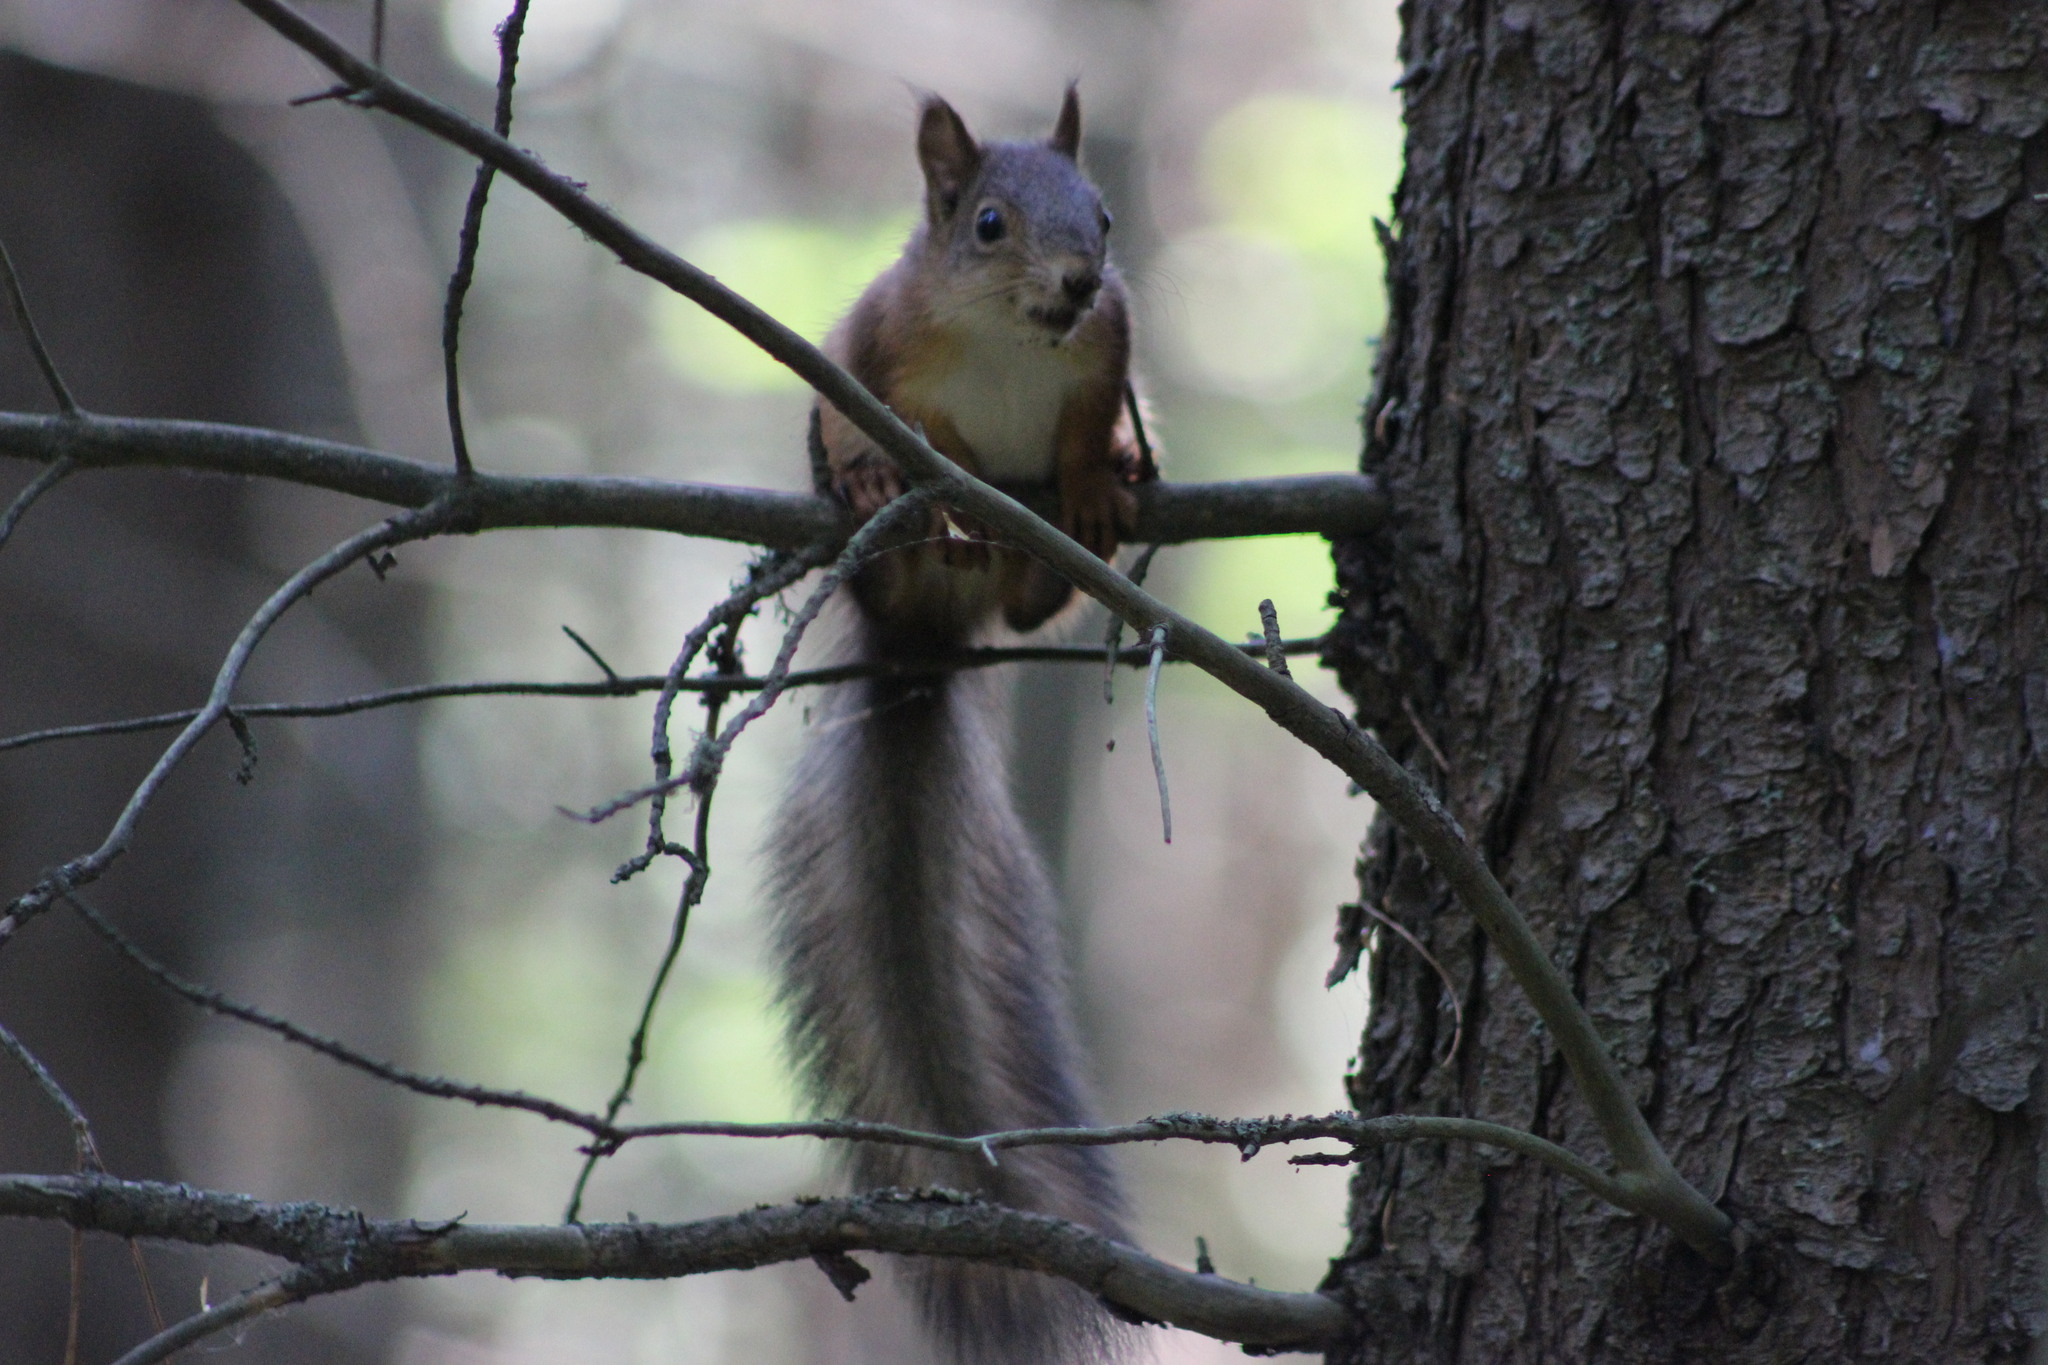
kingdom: Animalia
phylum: Chordata
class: Mammalia
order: Rodentia
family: Sciuridae
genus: Sciurus
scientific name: Sciurus vulgaris
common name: Eurasian red squirrel
